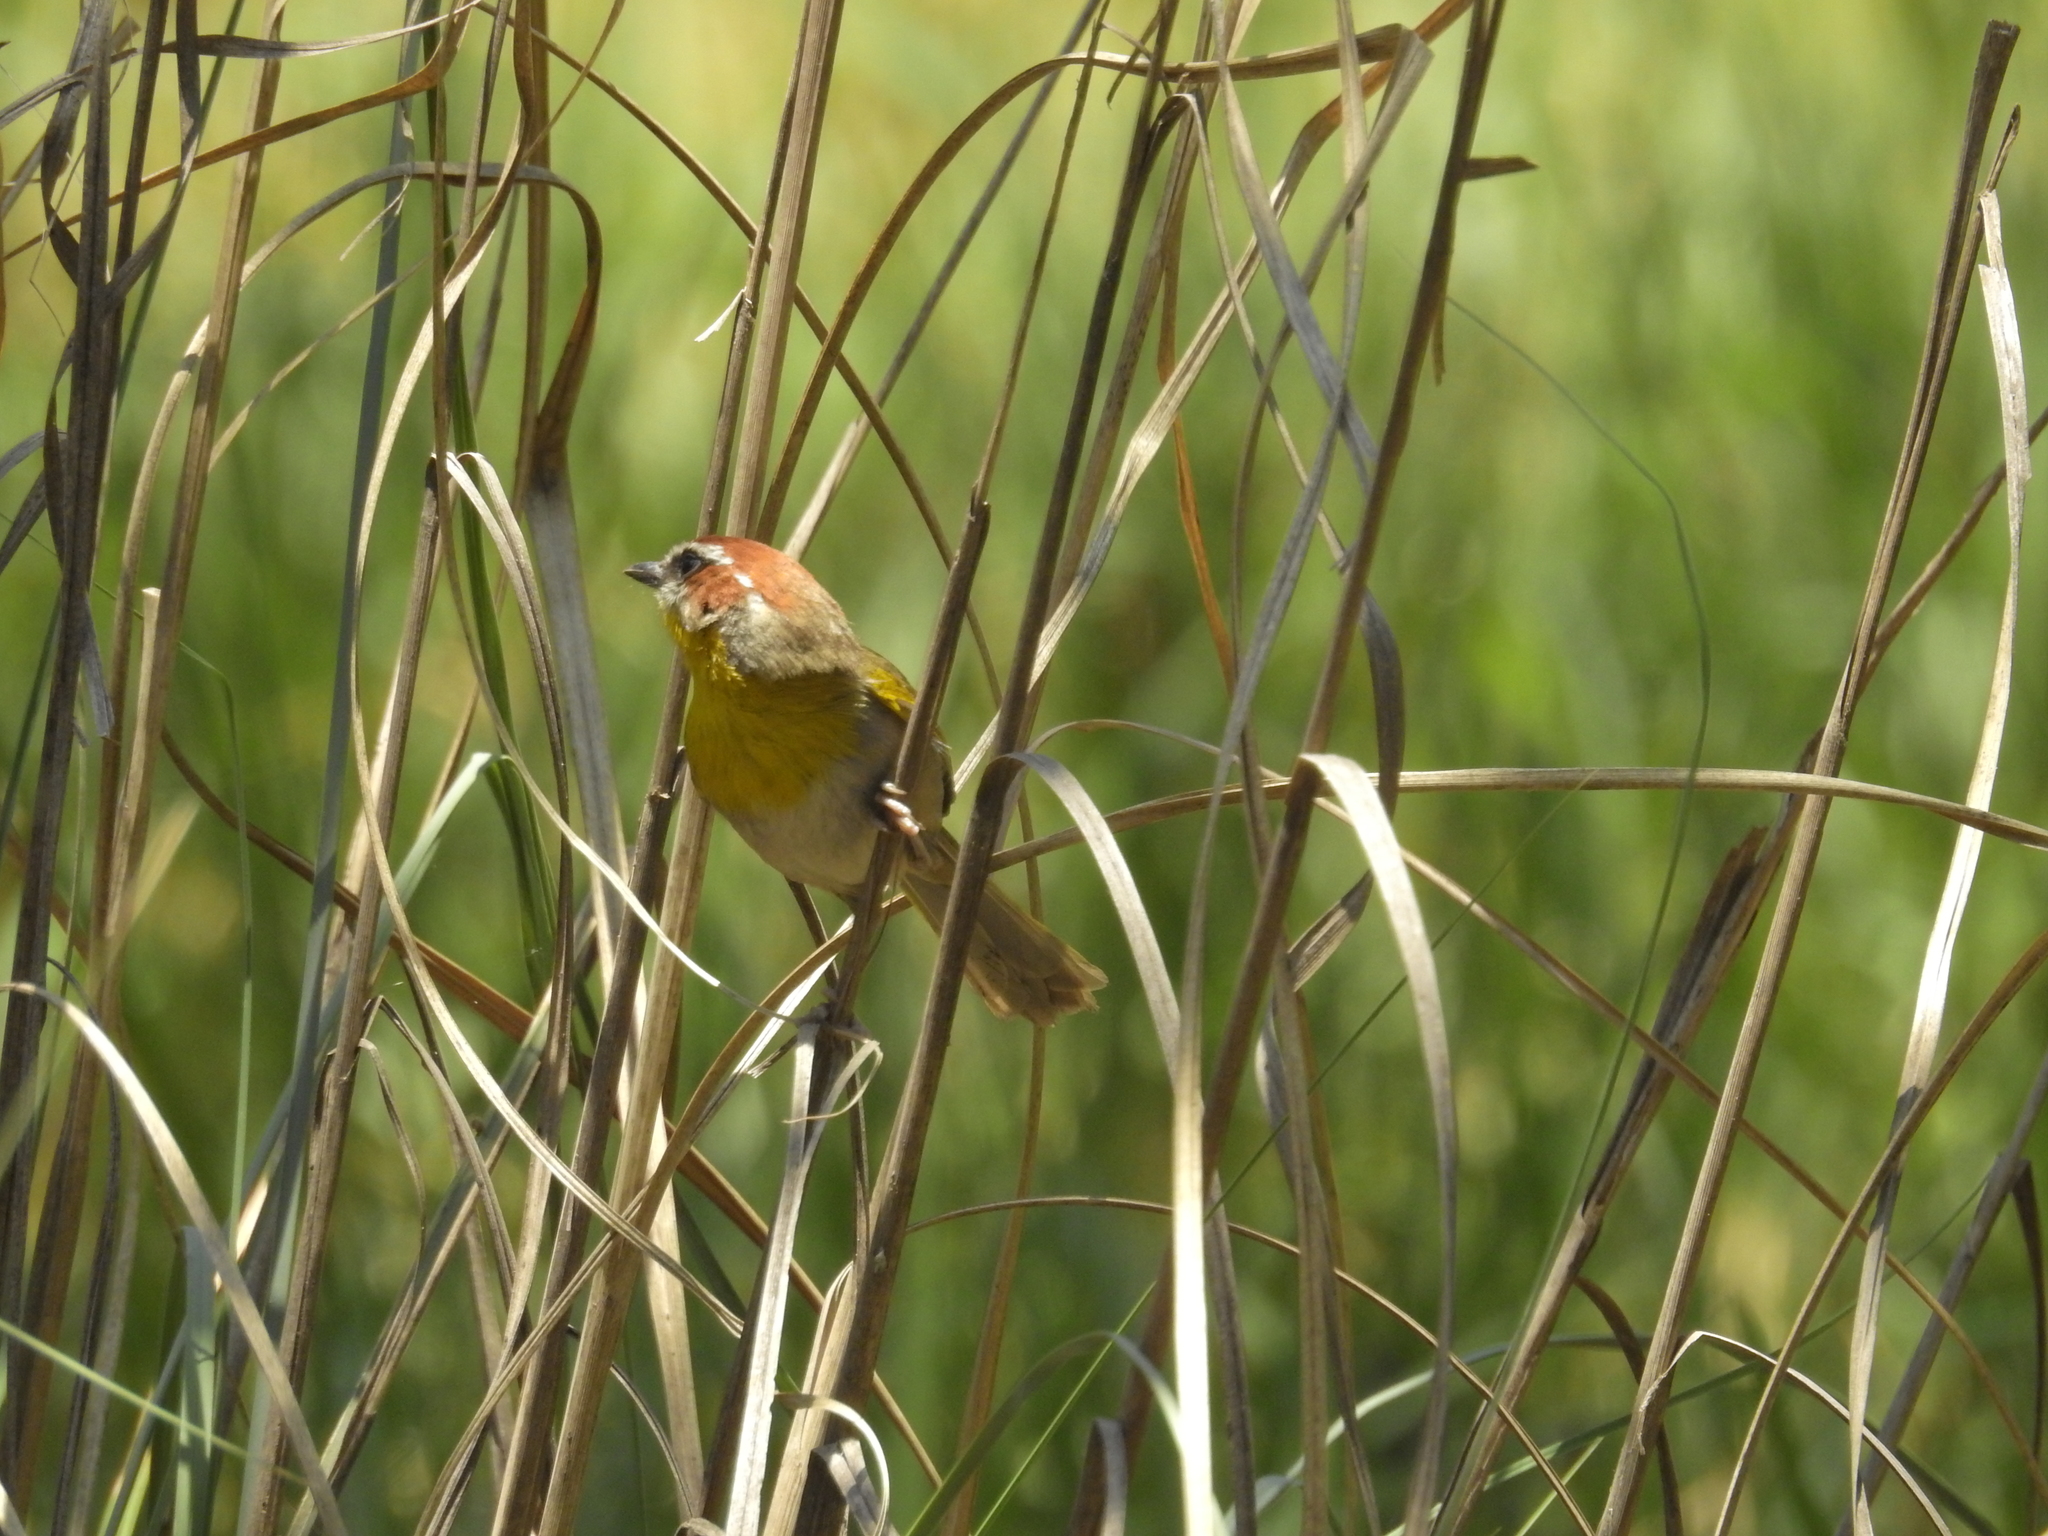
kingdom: Animalia
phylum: Chordata
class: Aves
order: Passeriformes
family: Parulidae
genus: Basileuterus
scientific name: Basileuterus rufifrons
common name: Rufous-capped warbler
